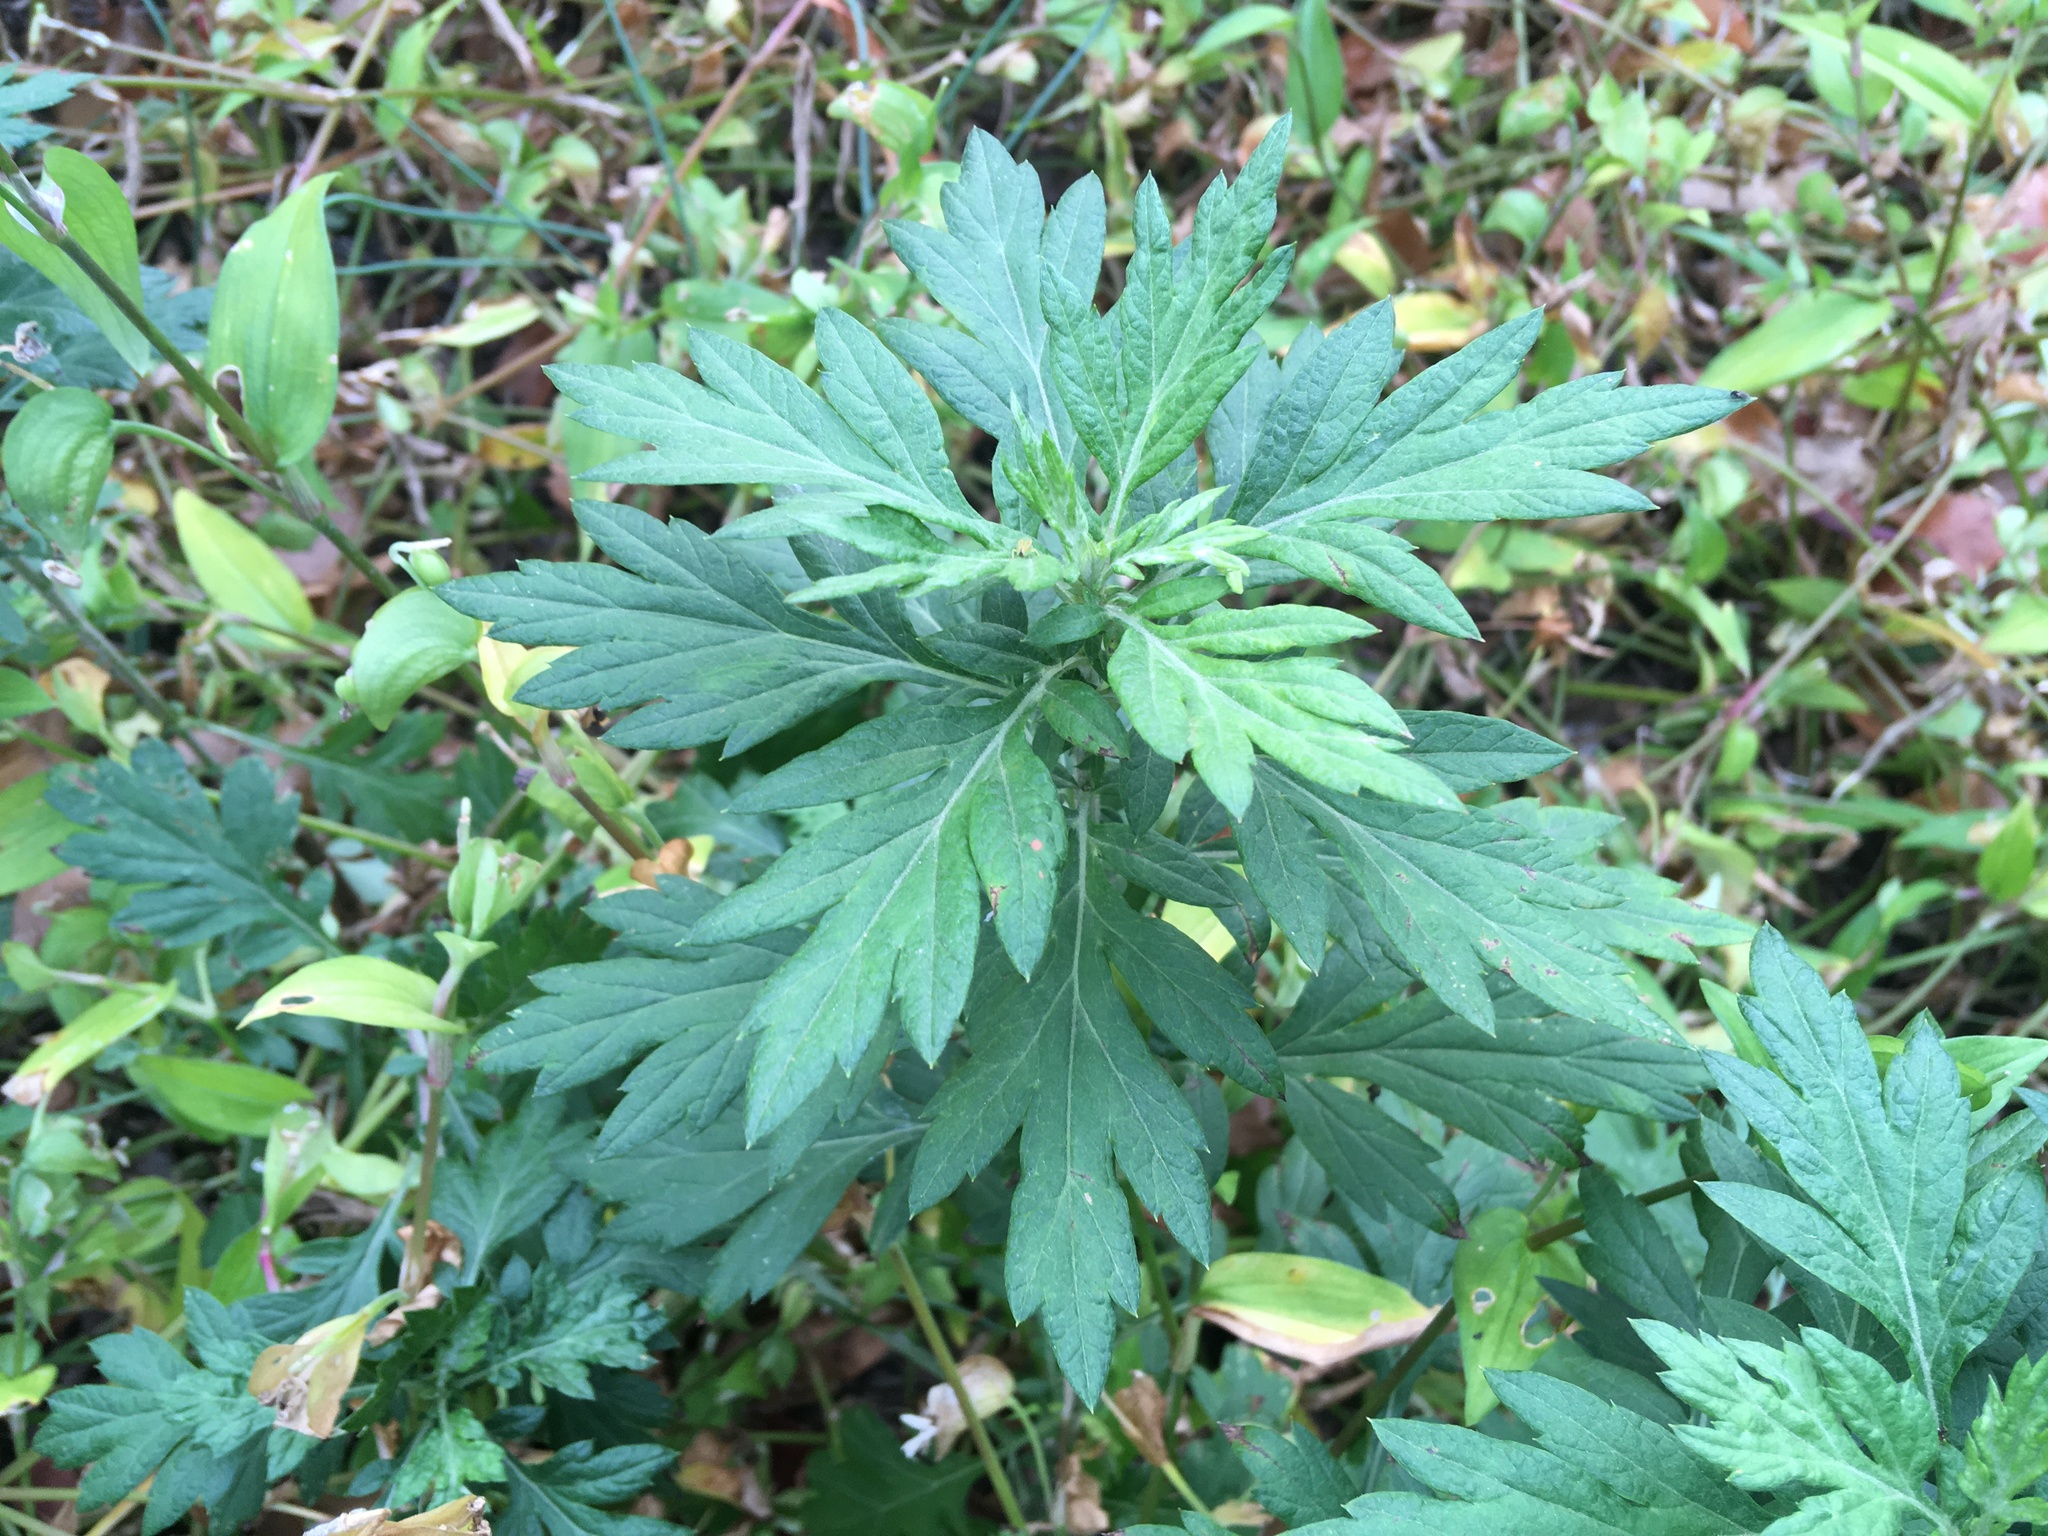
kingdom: Plantae
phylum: Tracheophyta
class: Magnoliopsida
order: Asterales
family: Asteraceae
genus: Artemisia
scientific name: Artemisia vulgaris
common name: Mugwort
